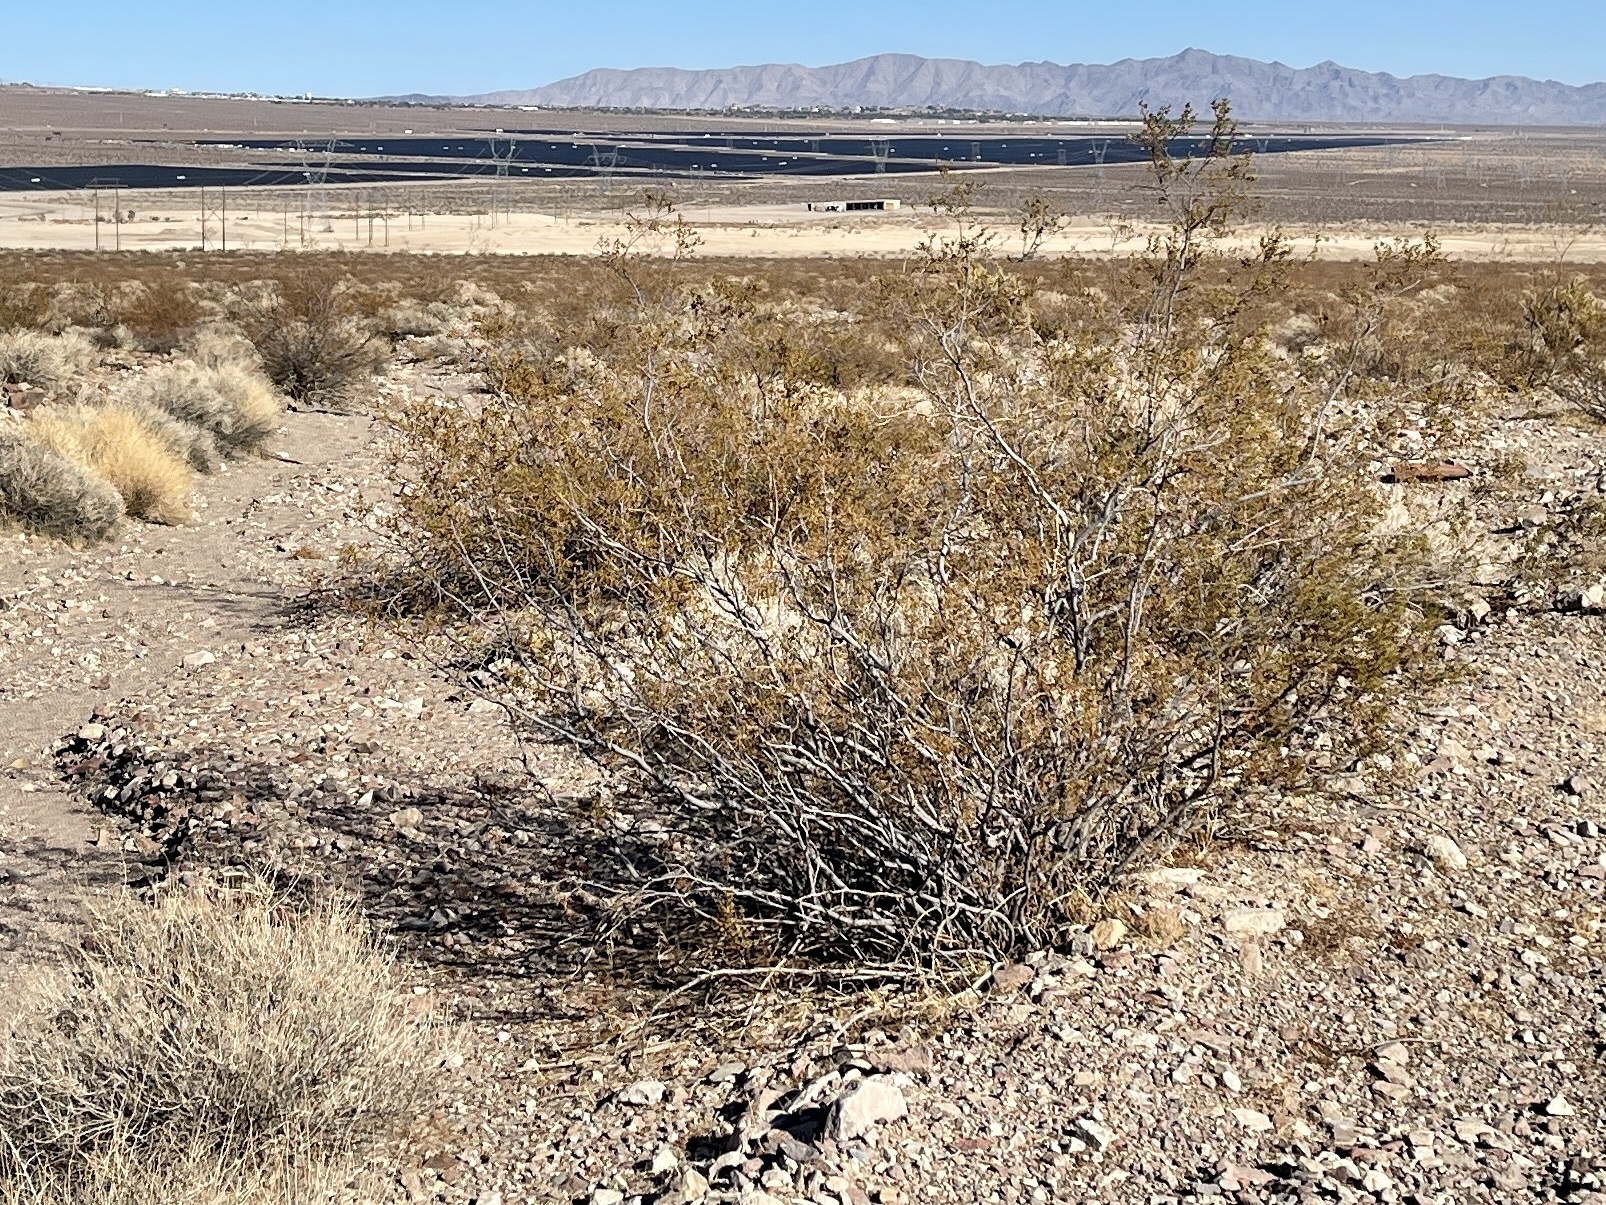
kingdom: Plantae
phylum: Tracheophyta
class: Magnoliopsida
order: Zygophyllales
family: Zygophyllaceae
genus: Larrea
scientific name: Larrea tridentata
